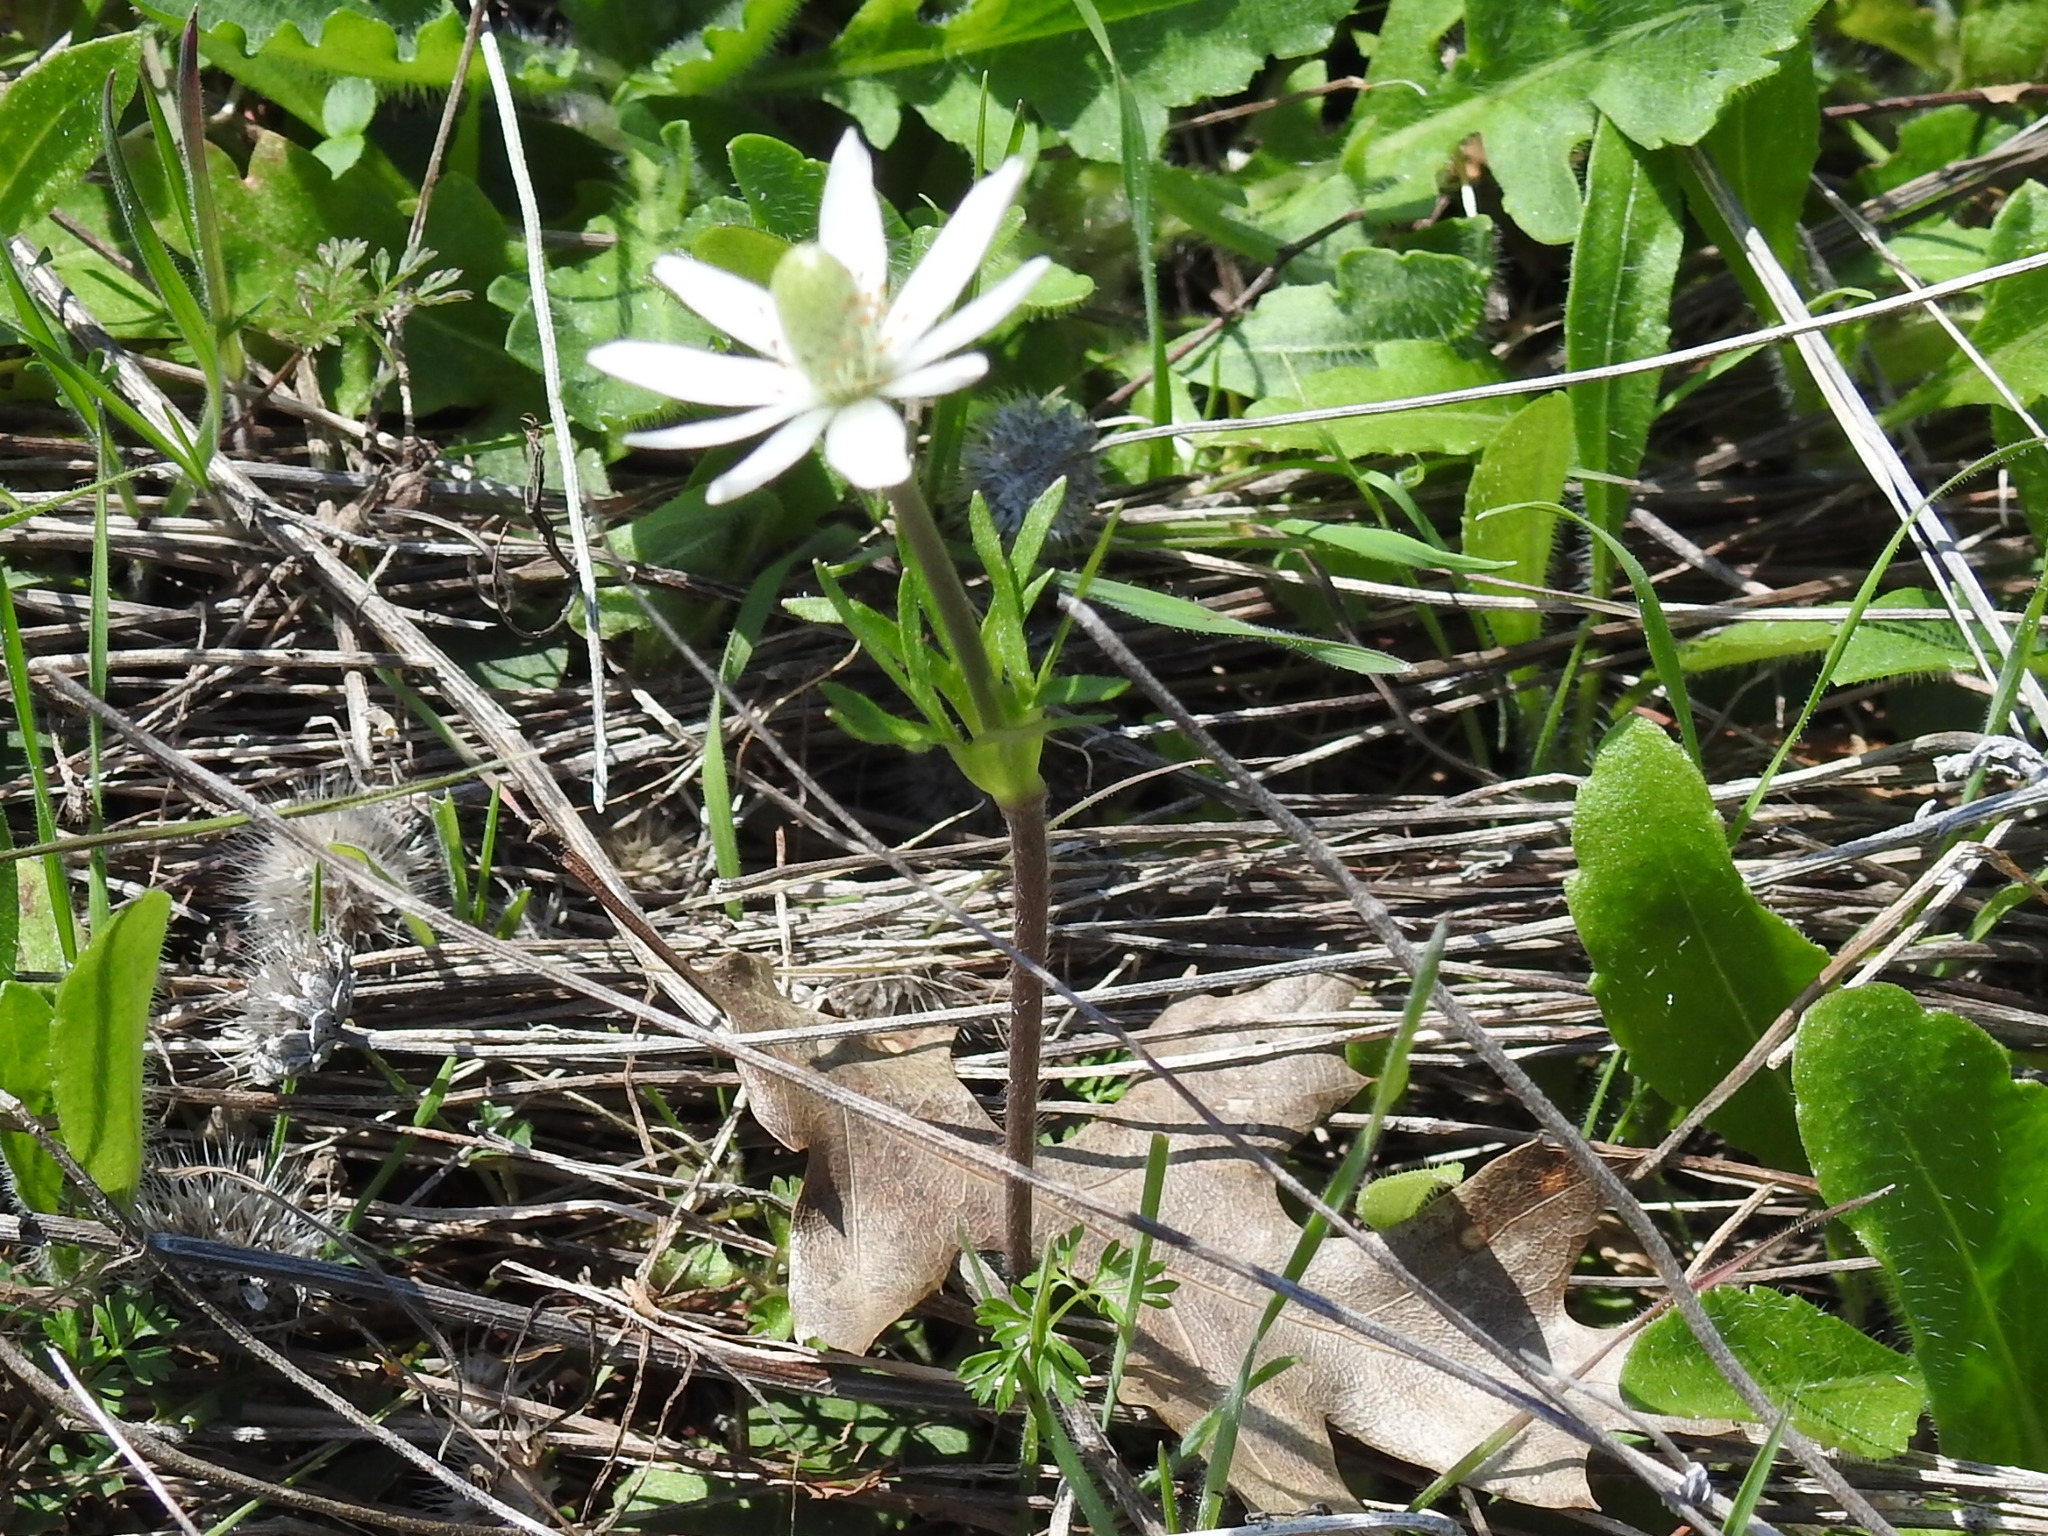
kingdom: Plantae
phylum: Tracheophyta
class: Magnoliopsida
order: Ranunculales
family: Ranunculaceae
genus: Anemone
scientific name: Anemone berlandieri
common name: Ten-petal anemone
